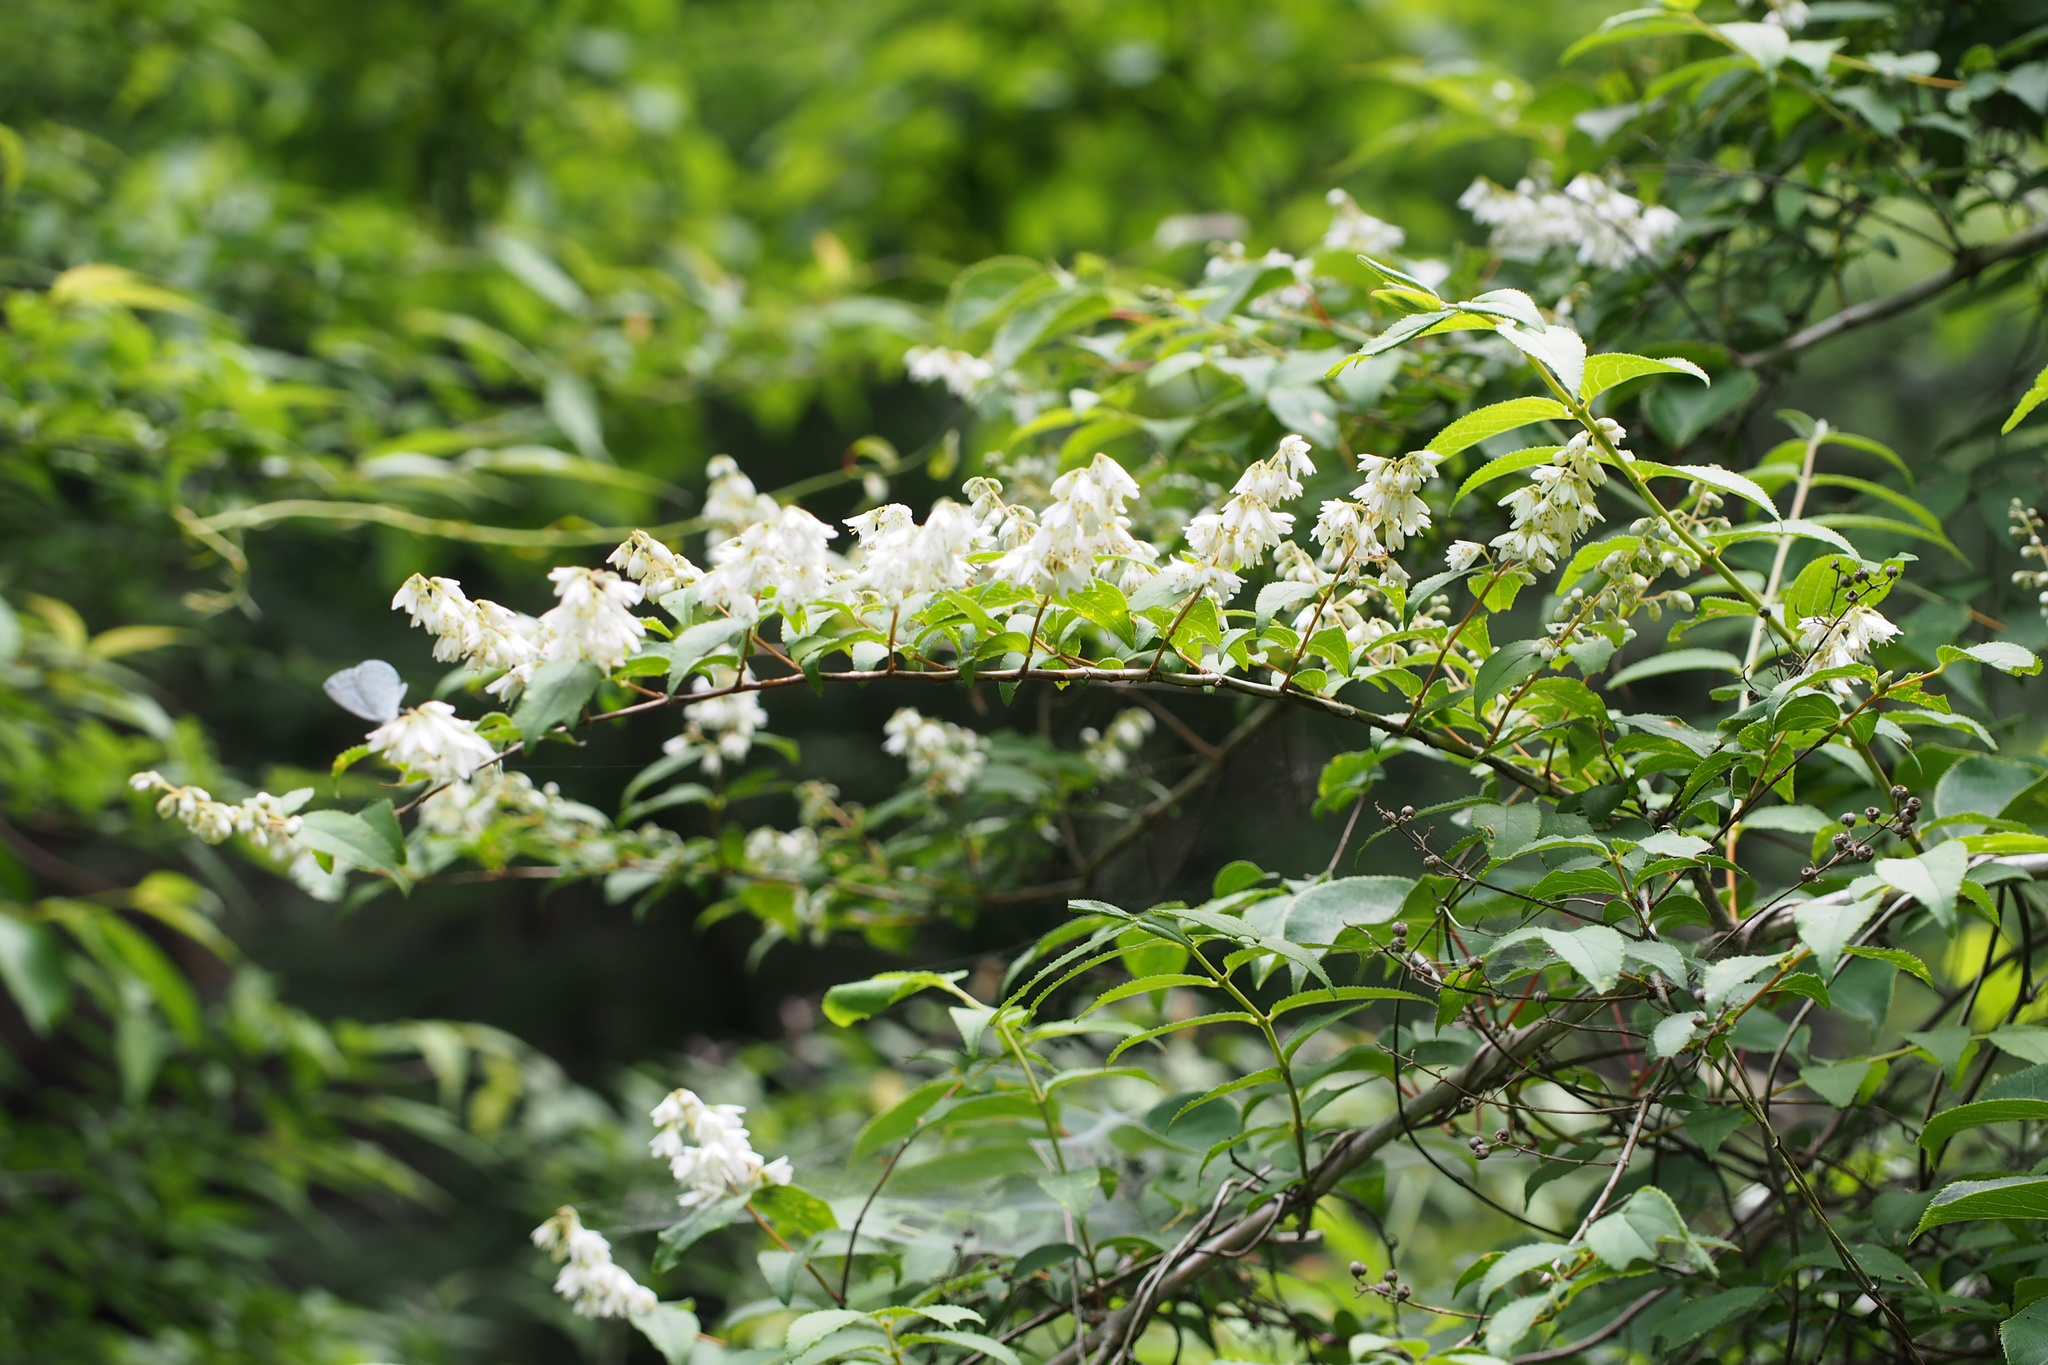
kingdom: Plantae
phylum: Tracheophyta
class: Magnoliopsida
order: Cornales
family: Hydrangeaceae
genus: Deutzia
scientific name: Deutzia crenata
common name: Deutzia
